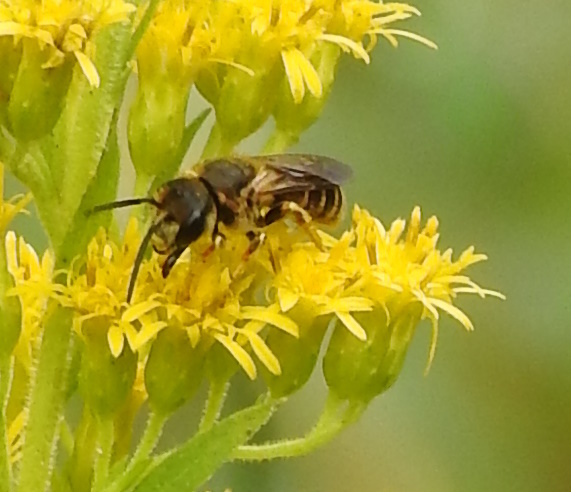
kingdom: Animalia
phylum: Arthropoda
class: Insecta
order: Hymenoptera
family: Halictidae
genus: Halictus
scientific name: Halictus poeyi
